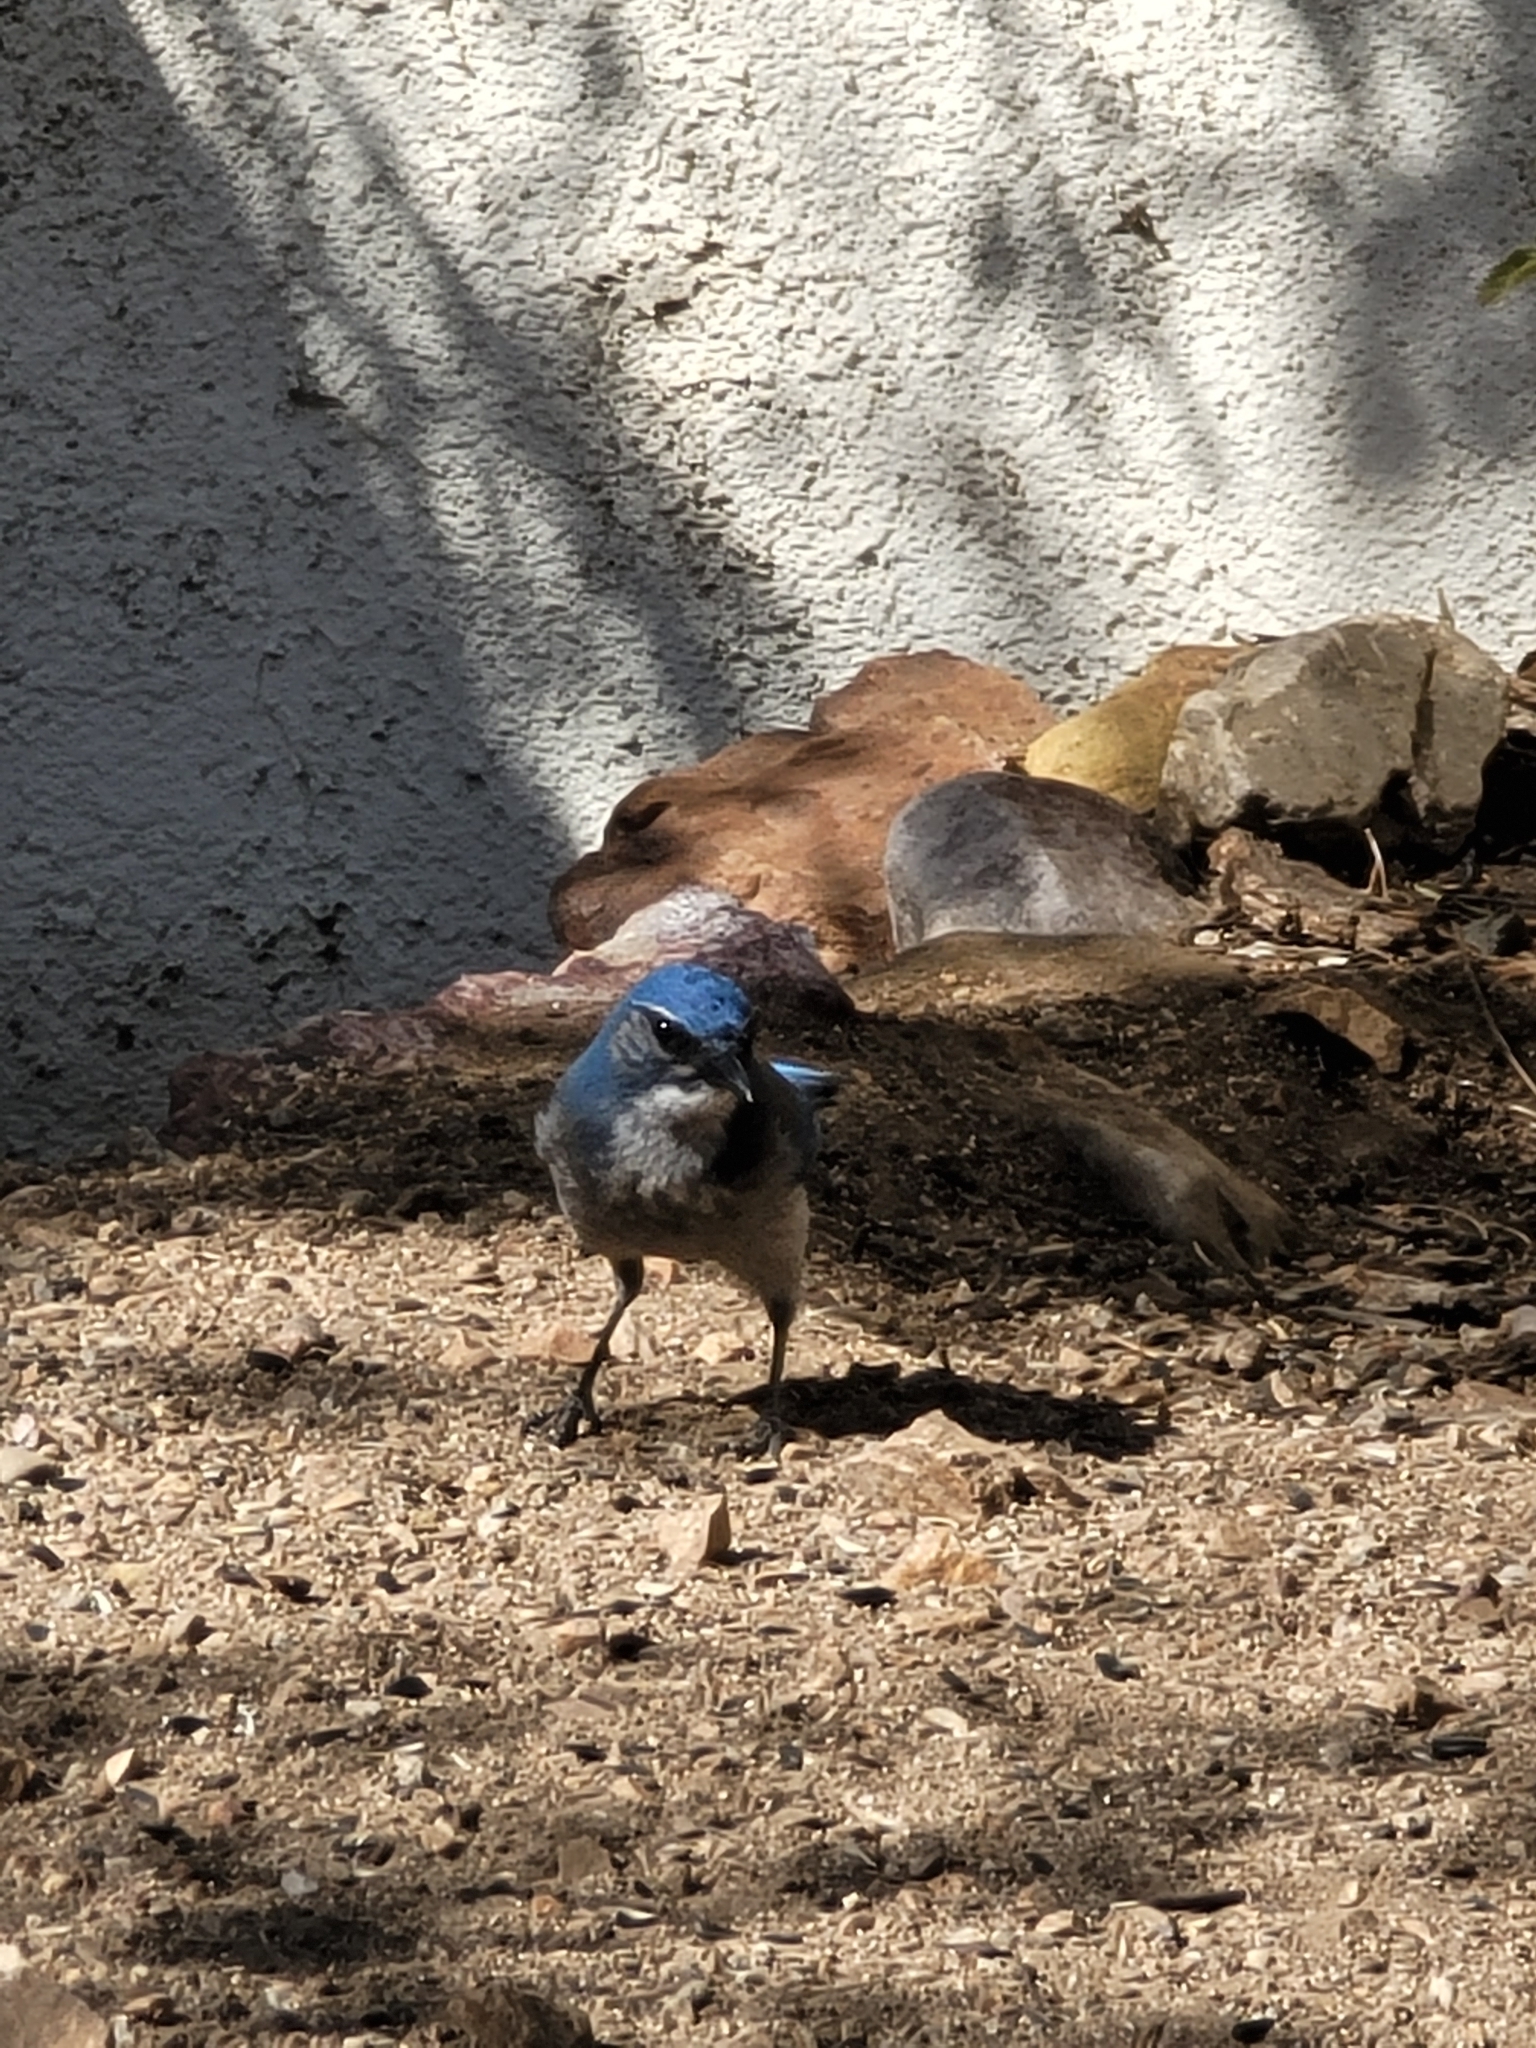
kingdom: Animalia
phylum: Chordata
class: Aves
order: Passeriformes
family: Corvidae
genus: Aphelocoma
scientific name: Aphelocoma woodhouseii
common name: Woodhouse's scrub-jay
